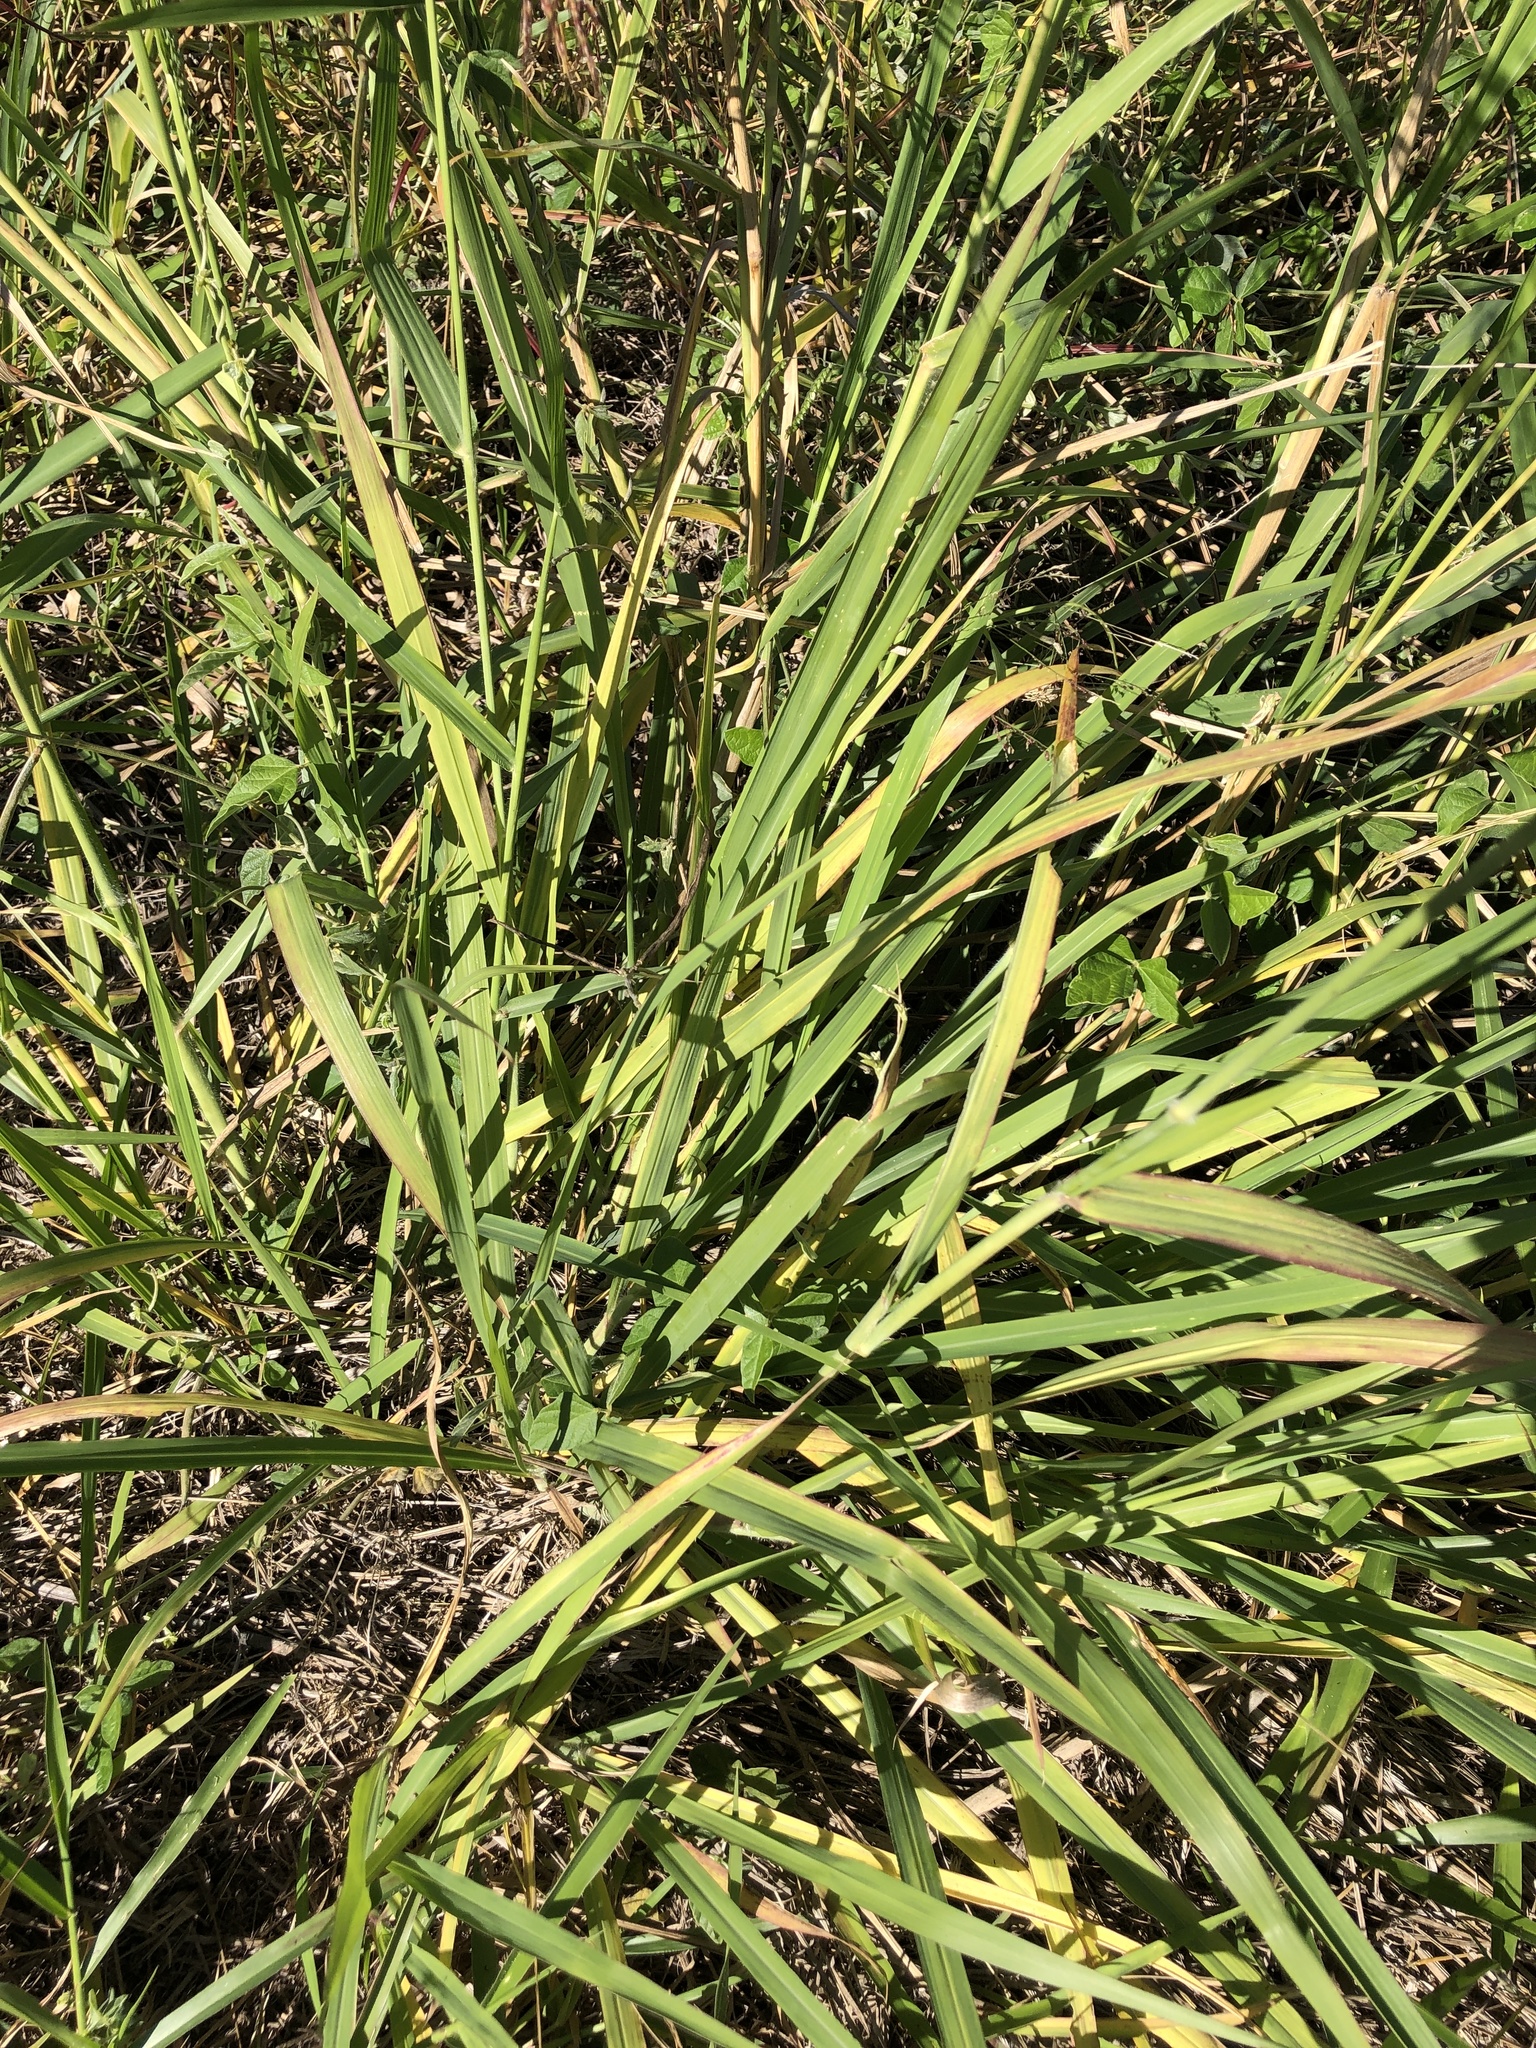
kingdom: Plantae
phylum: Tracheophyta
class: Liliopsida
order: Poales
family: Poaceae
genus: Megathyrsus
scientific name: Megathyrsus maximus
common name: Guineagrass
